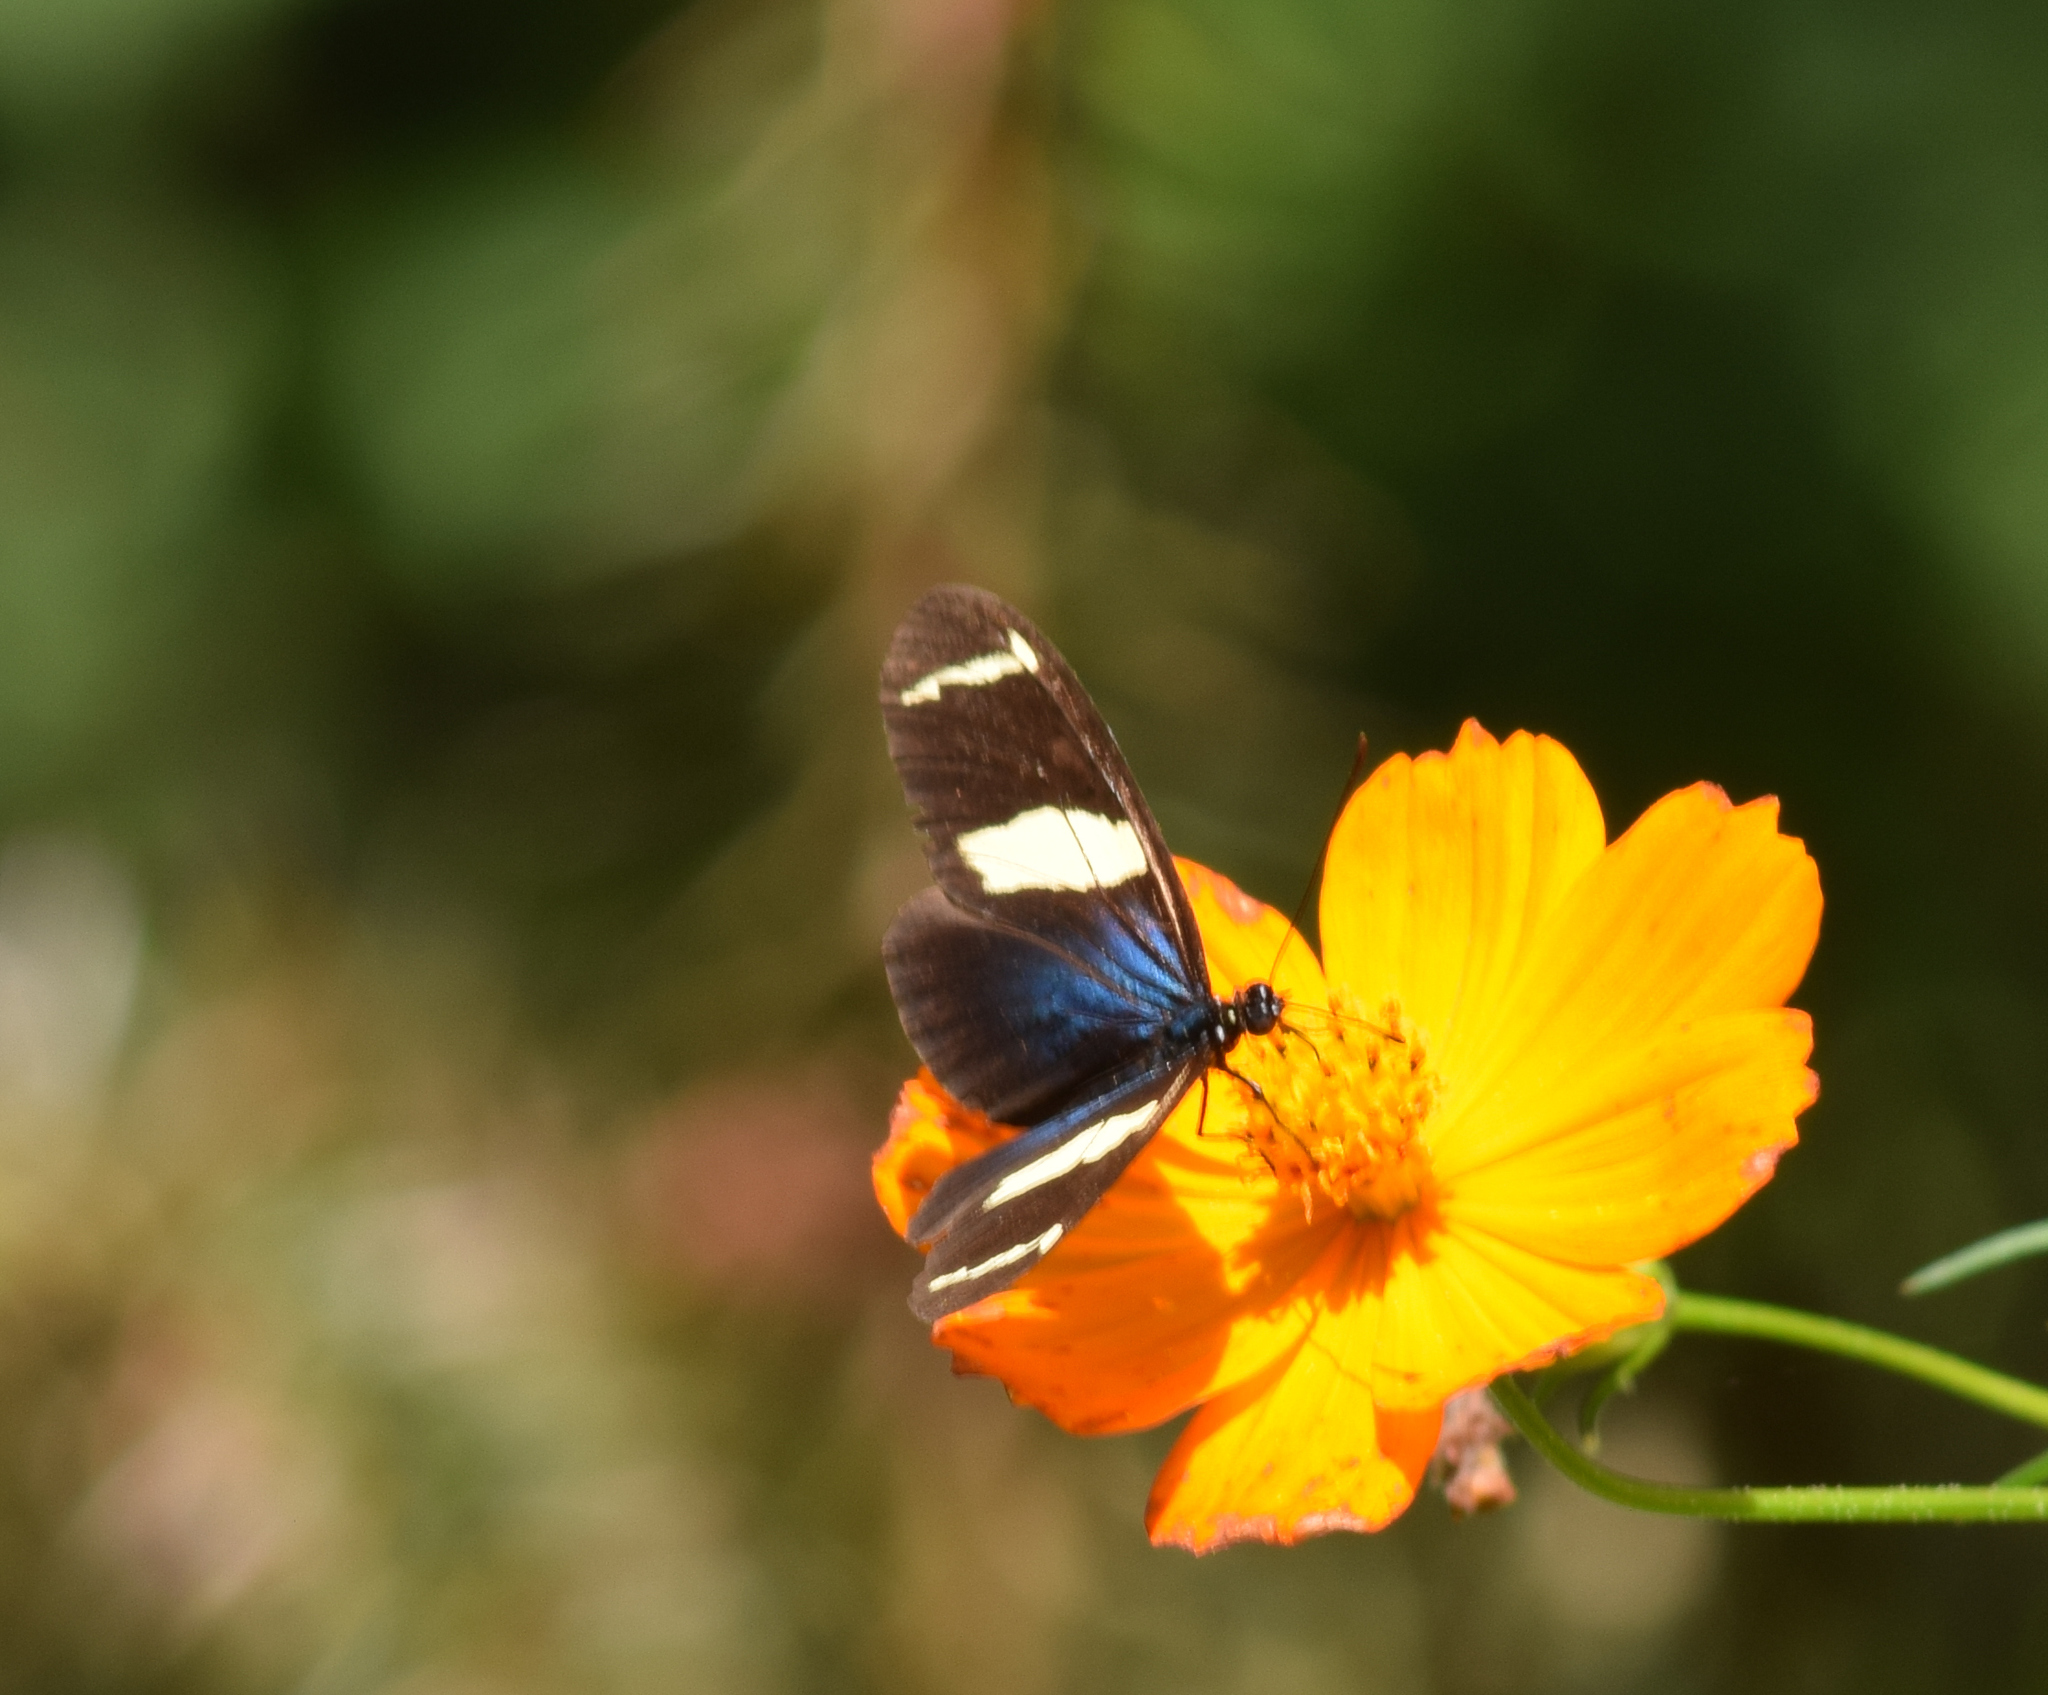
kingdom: Animalia
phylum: Arthropoda
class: Insecta
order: Lepidoptera
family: Nymphalidae
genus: Heliconius
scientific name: Heliconius sara
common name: Sara longwing
